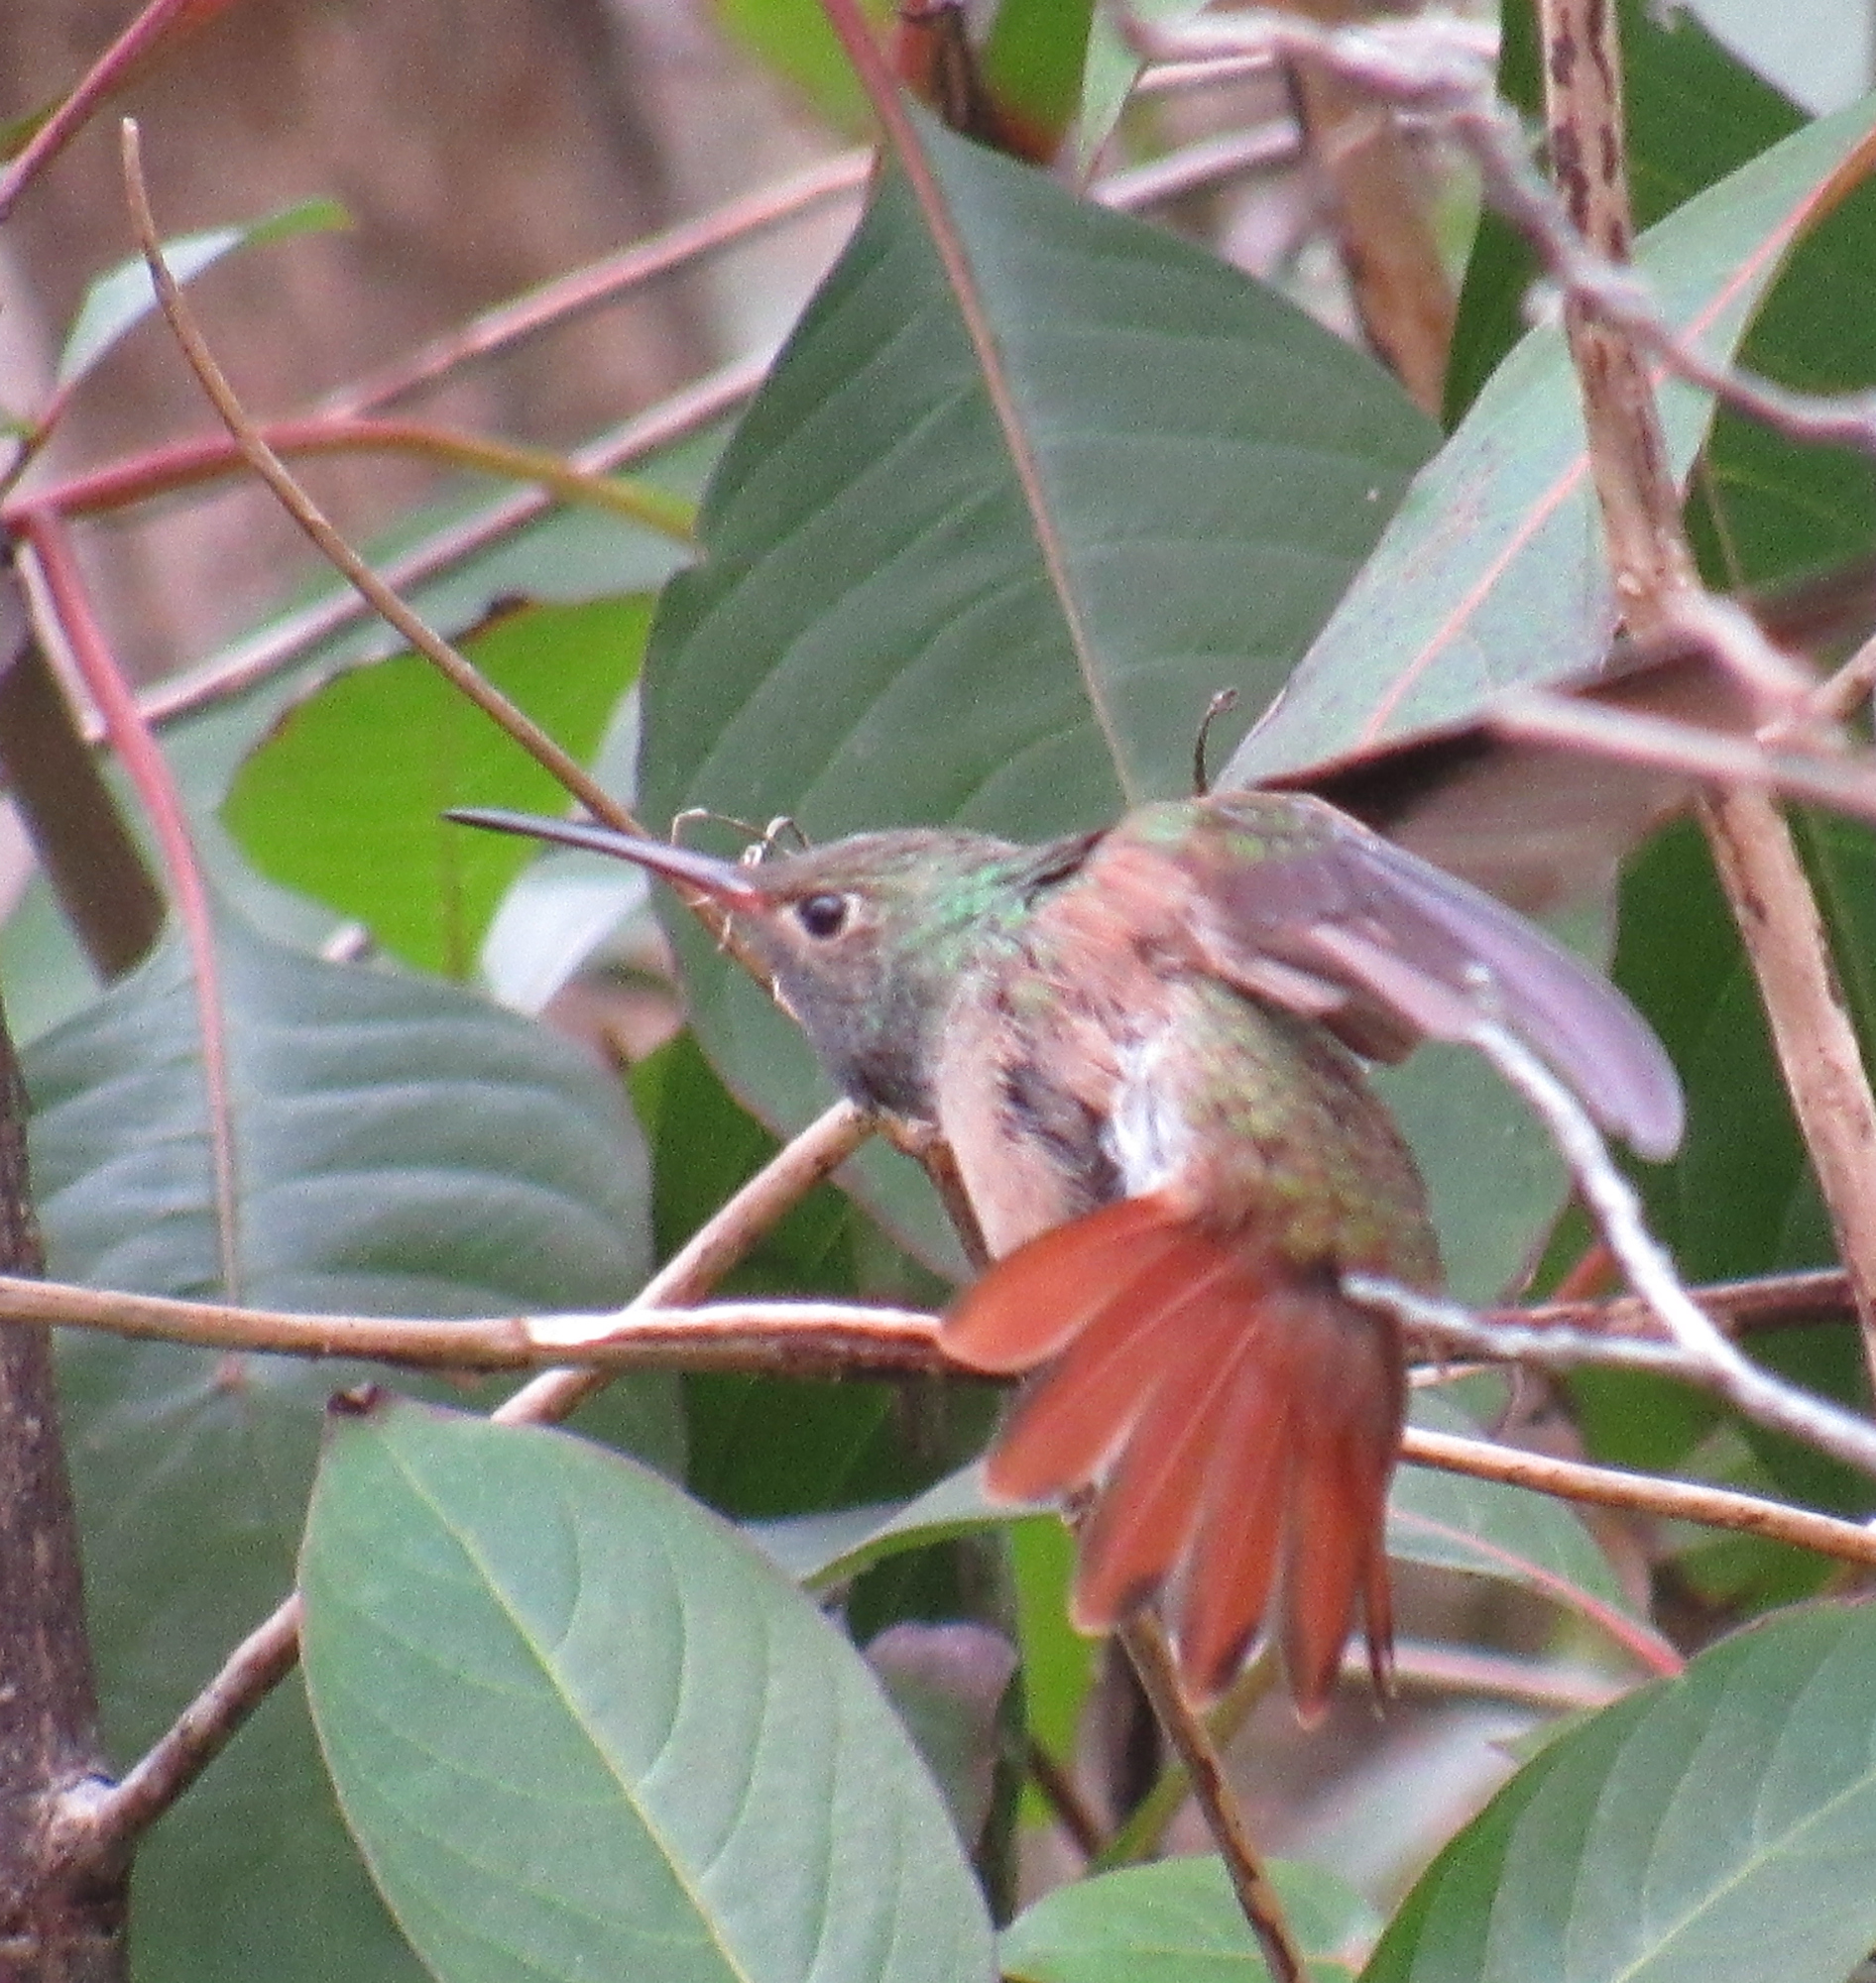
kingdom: Animalia
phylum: Chordata
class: Aves
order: Apodiformes
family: Trochilidae
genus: Amazilia
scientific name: Amazilia yucatanensis
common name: Buff-bellied hummingbird
